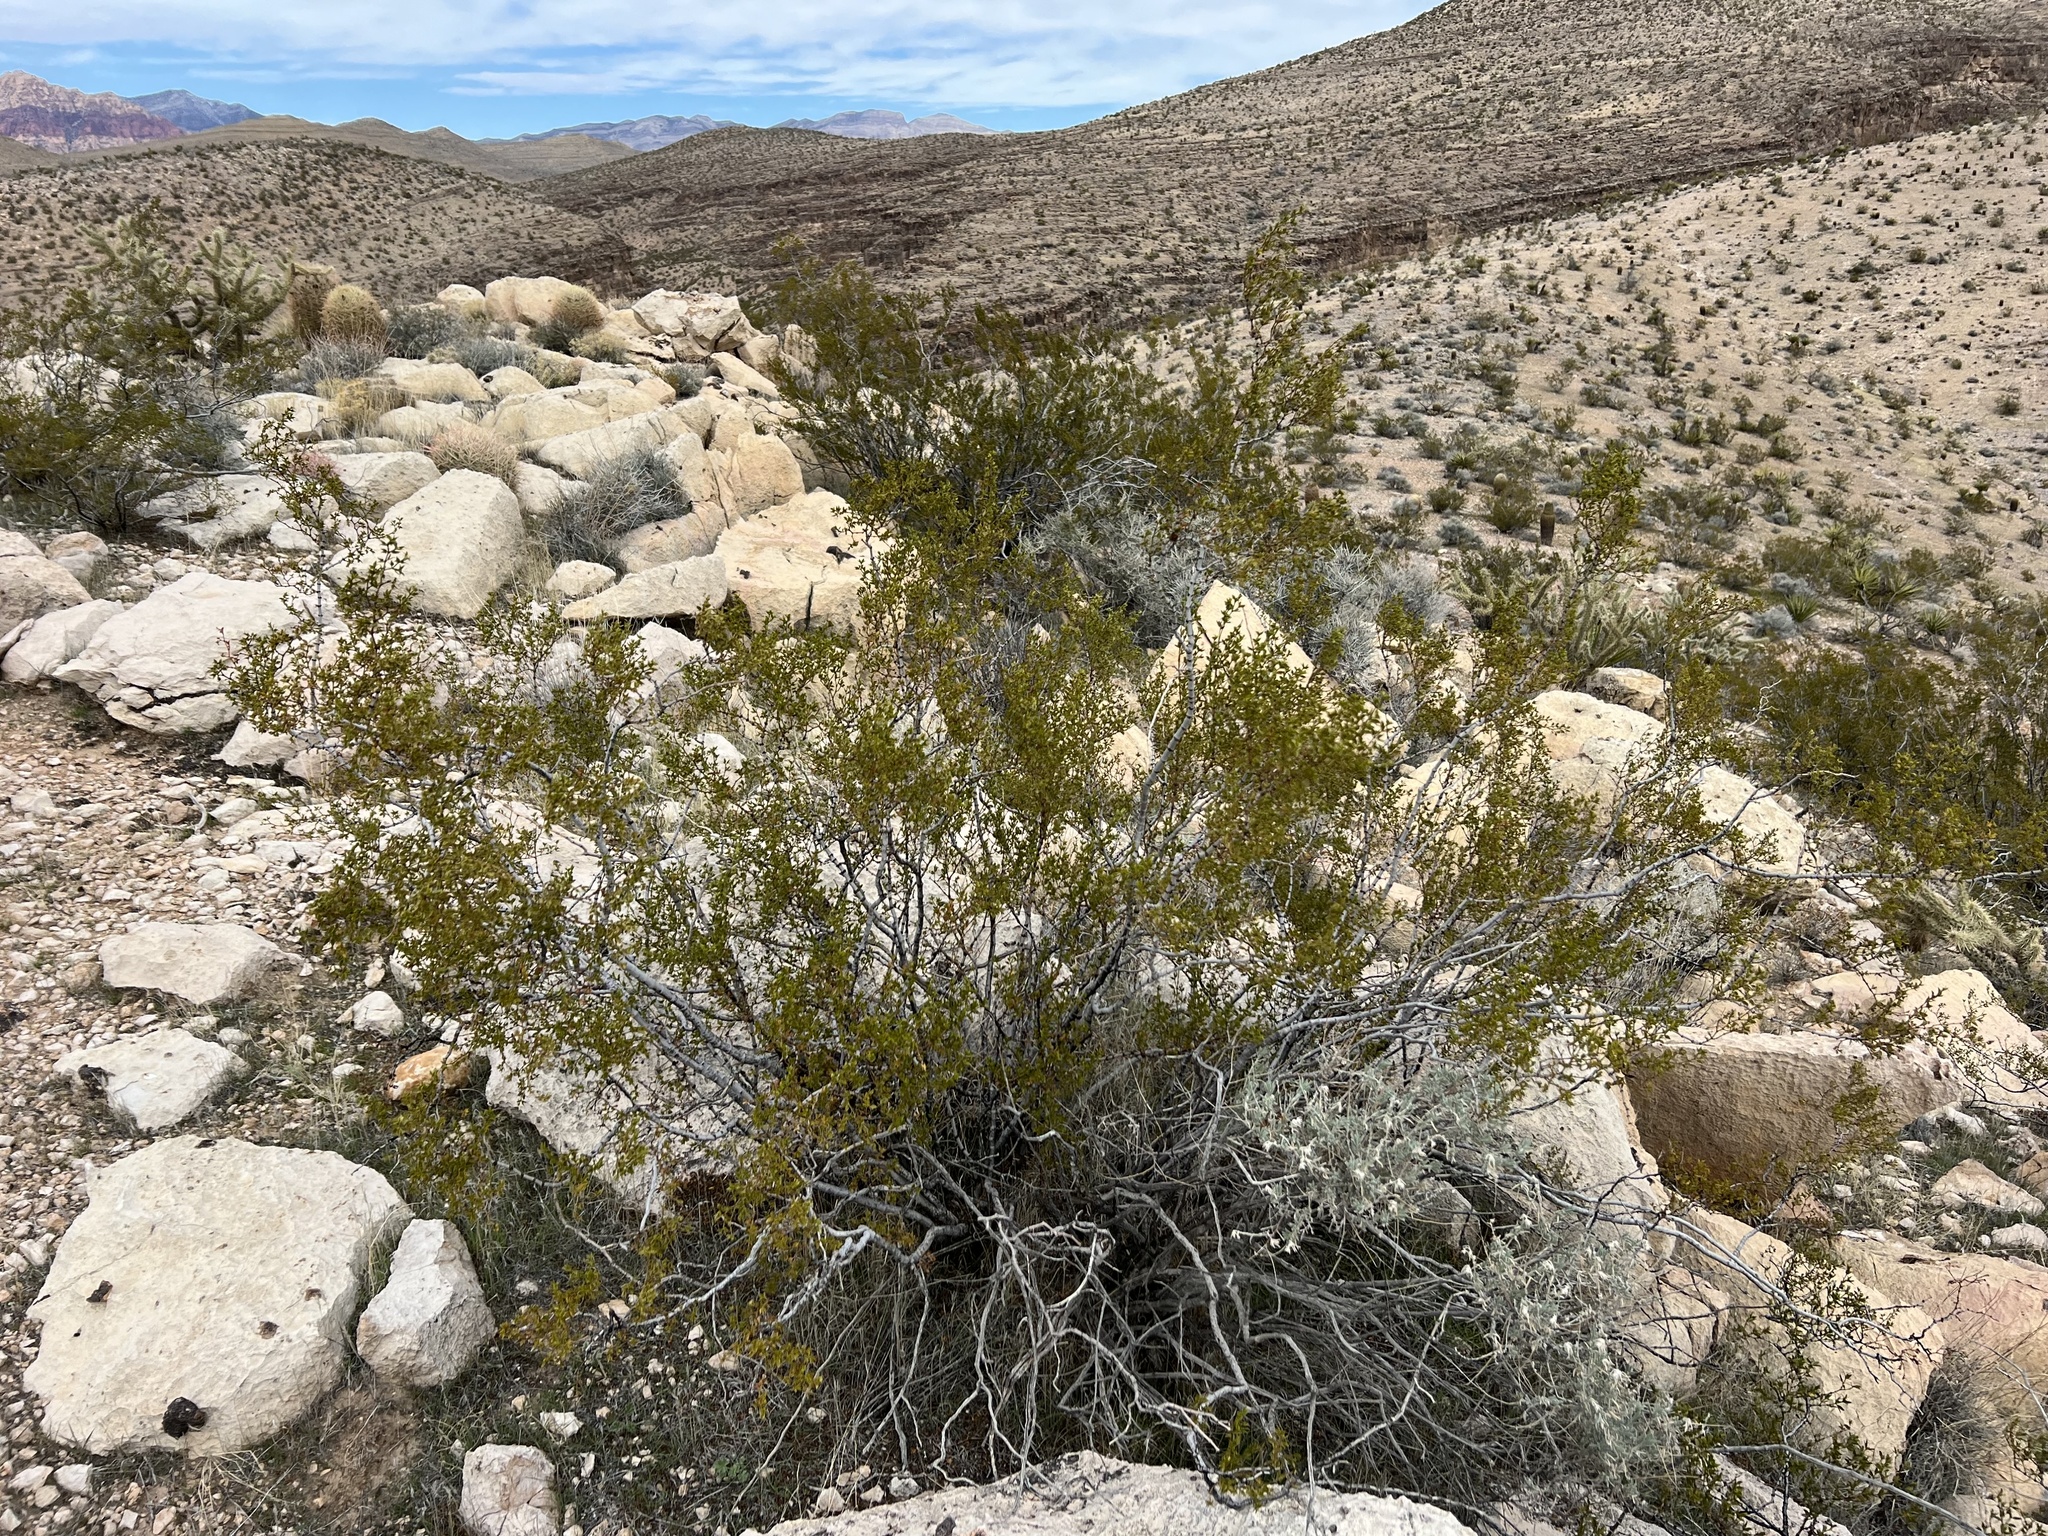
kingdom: Plantae
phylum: Tracheophyta
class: Magnoliopsida
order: Zygophyllales
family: Zygophyllaceae
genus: Larrea
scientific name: Larrea tridentata
